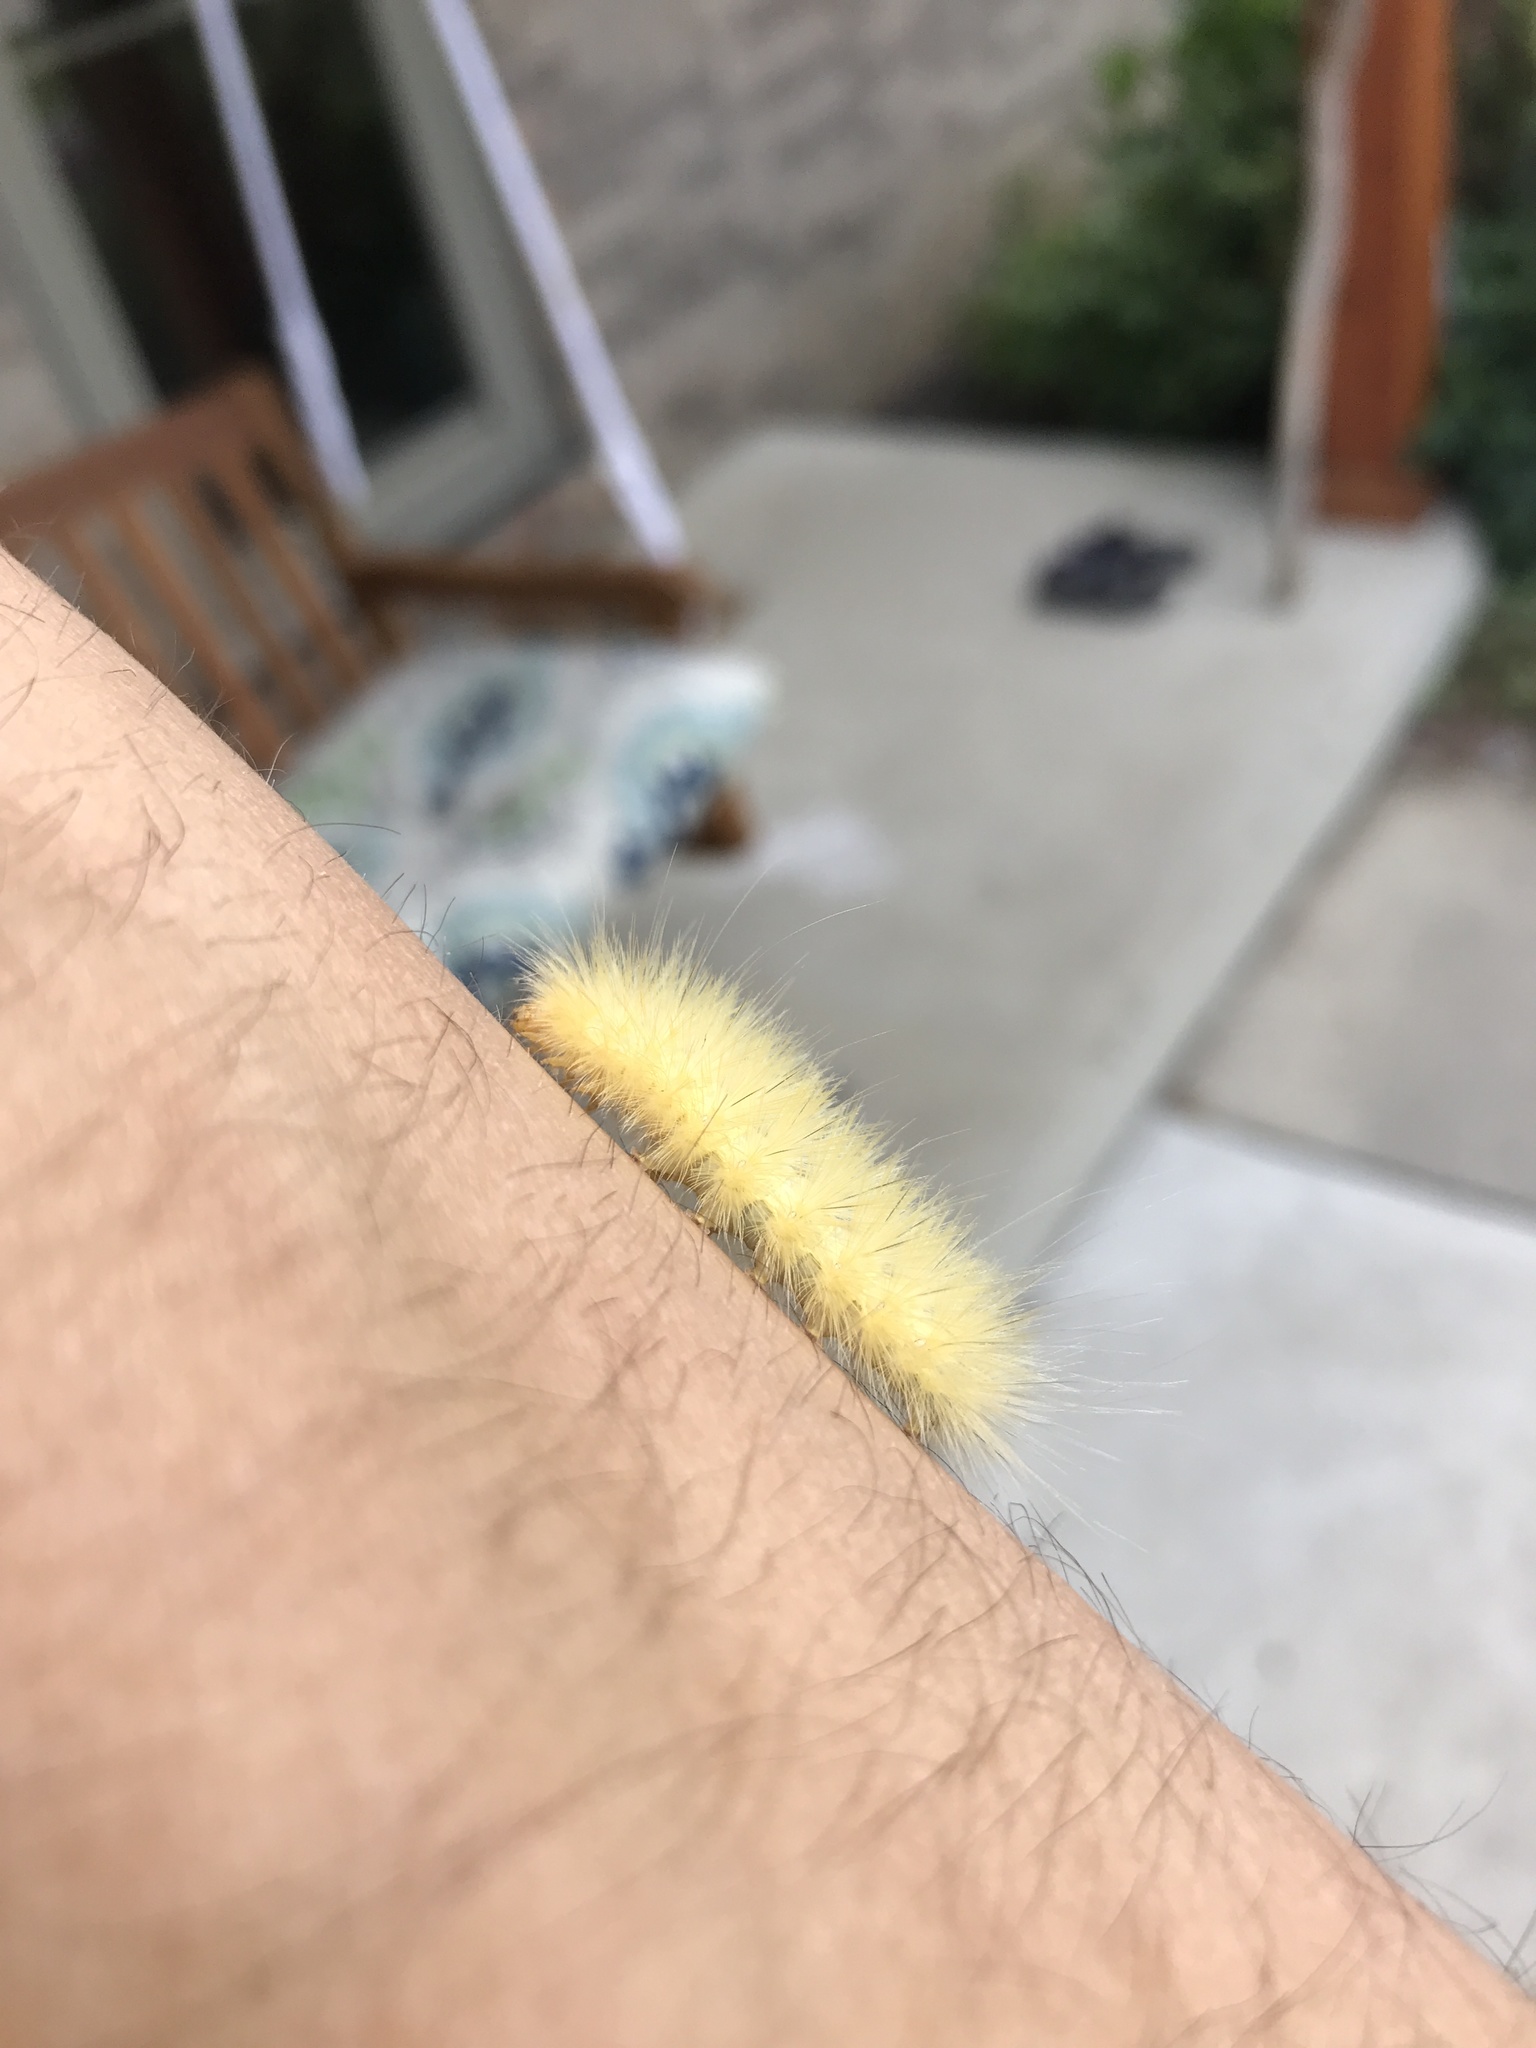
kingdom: Animalia
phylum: Arthropoda
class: Insecta
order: Lepidoptera
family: Erebidae
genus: Spilosoma
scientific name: Spilosoma virginica
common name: Virginia tiger moth
